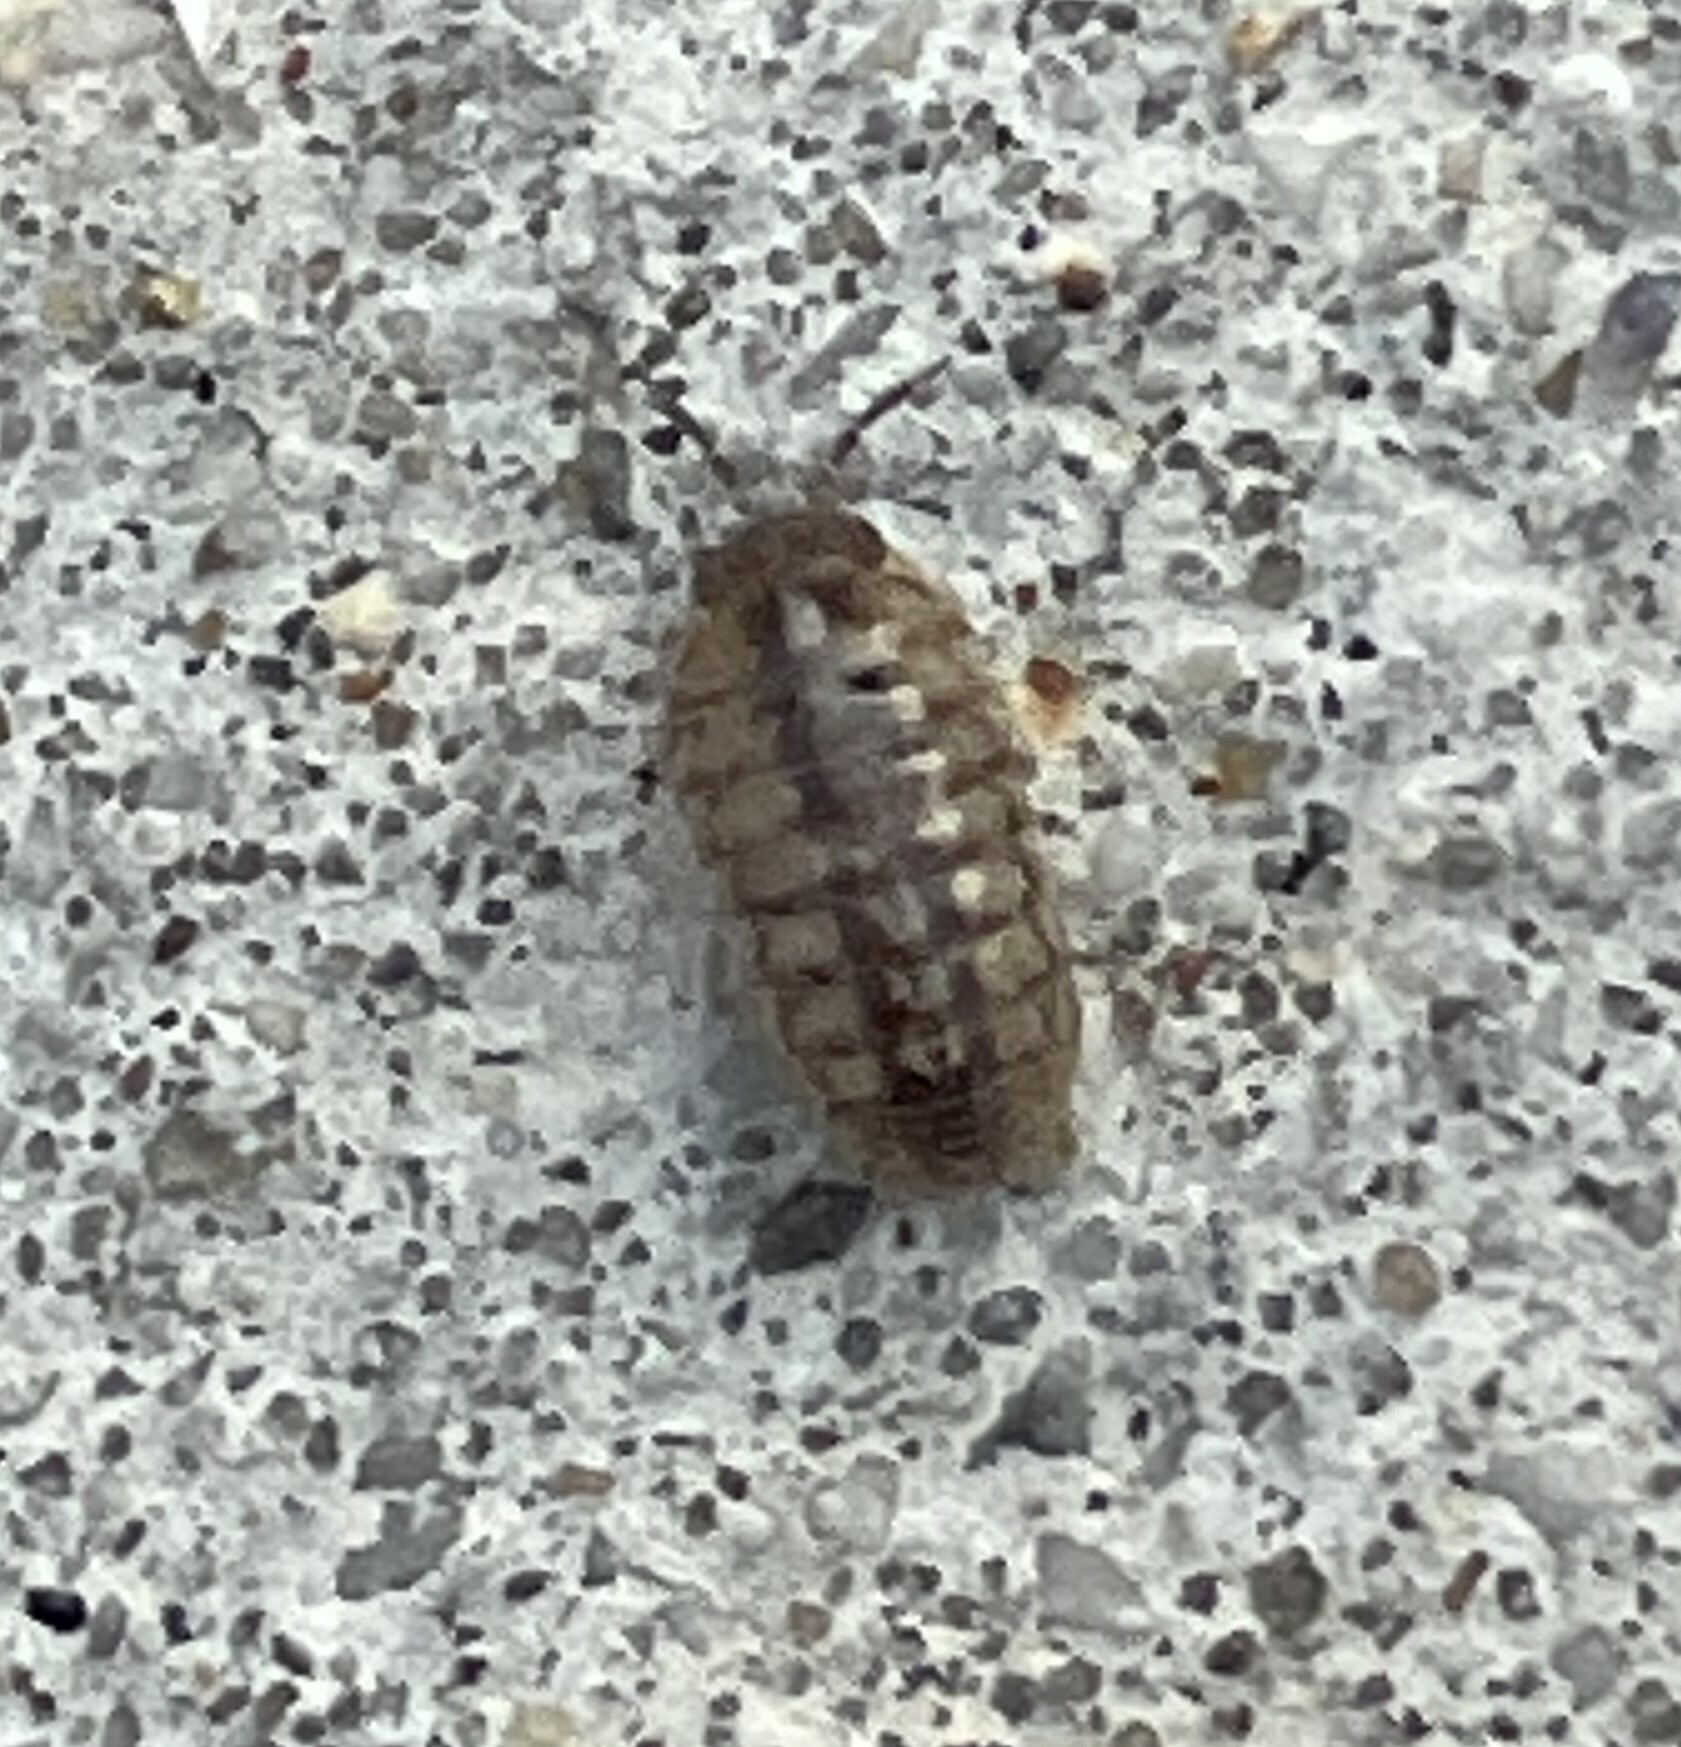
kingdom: Animalia
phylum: Arthropoda
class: Malacostraca
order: Isopoda
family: Armadillidiidae
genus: Armadillidium
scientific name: Armadillidium vulgare
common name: Common pill woodlouse
